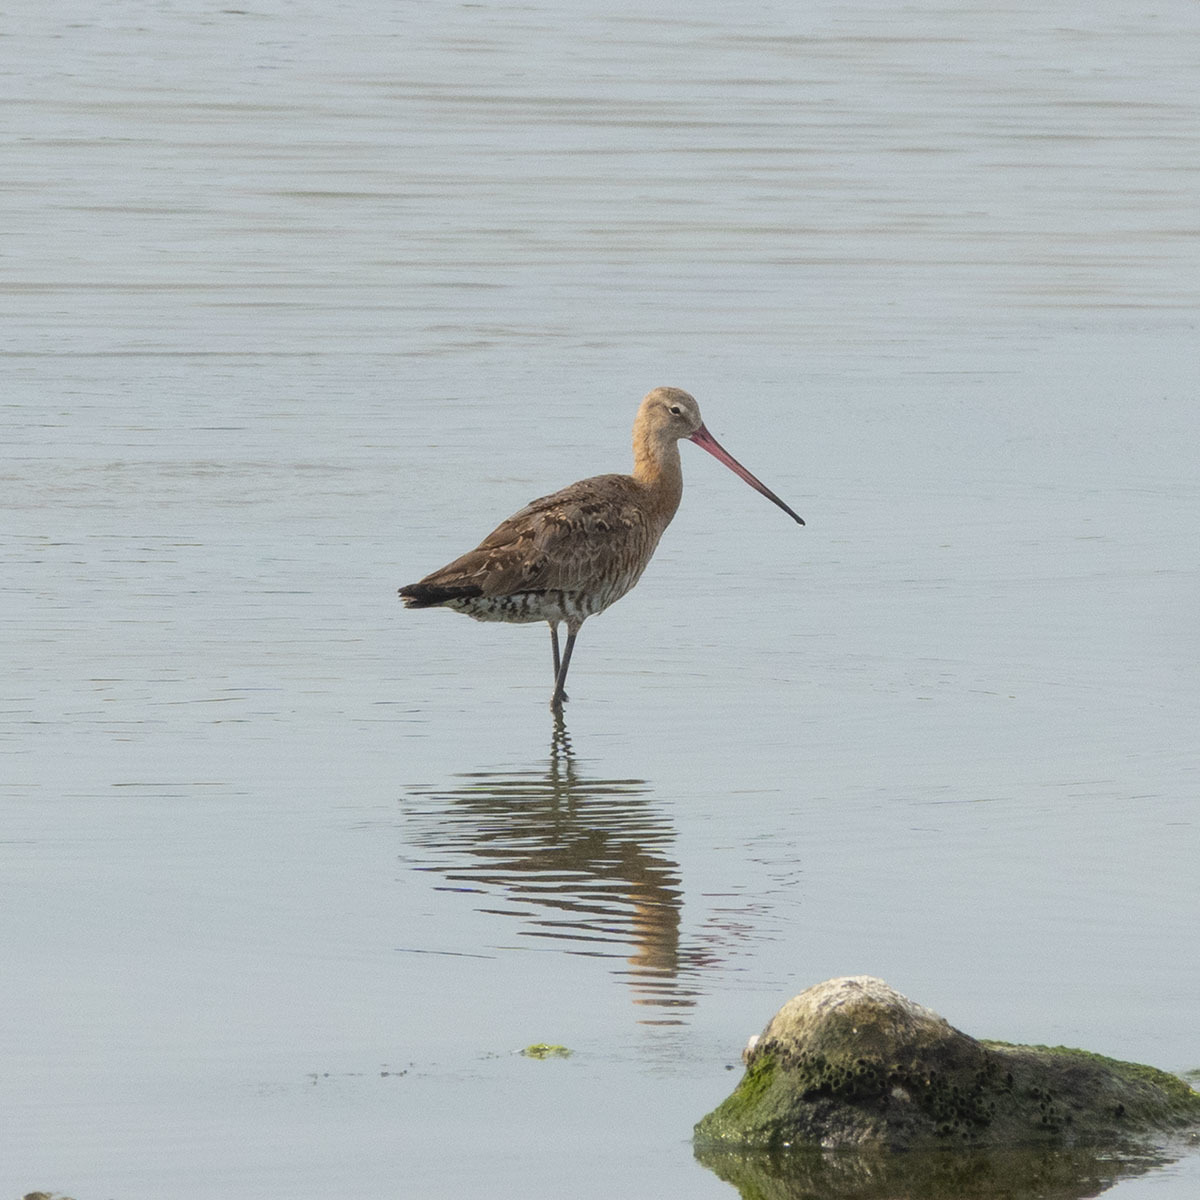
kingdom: Animalia
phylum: Chordata
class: Aves
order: Charadriiformes
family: Scolopacidae
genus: Limosa
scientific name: Limosa limosa
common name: Black-tailed godwit
